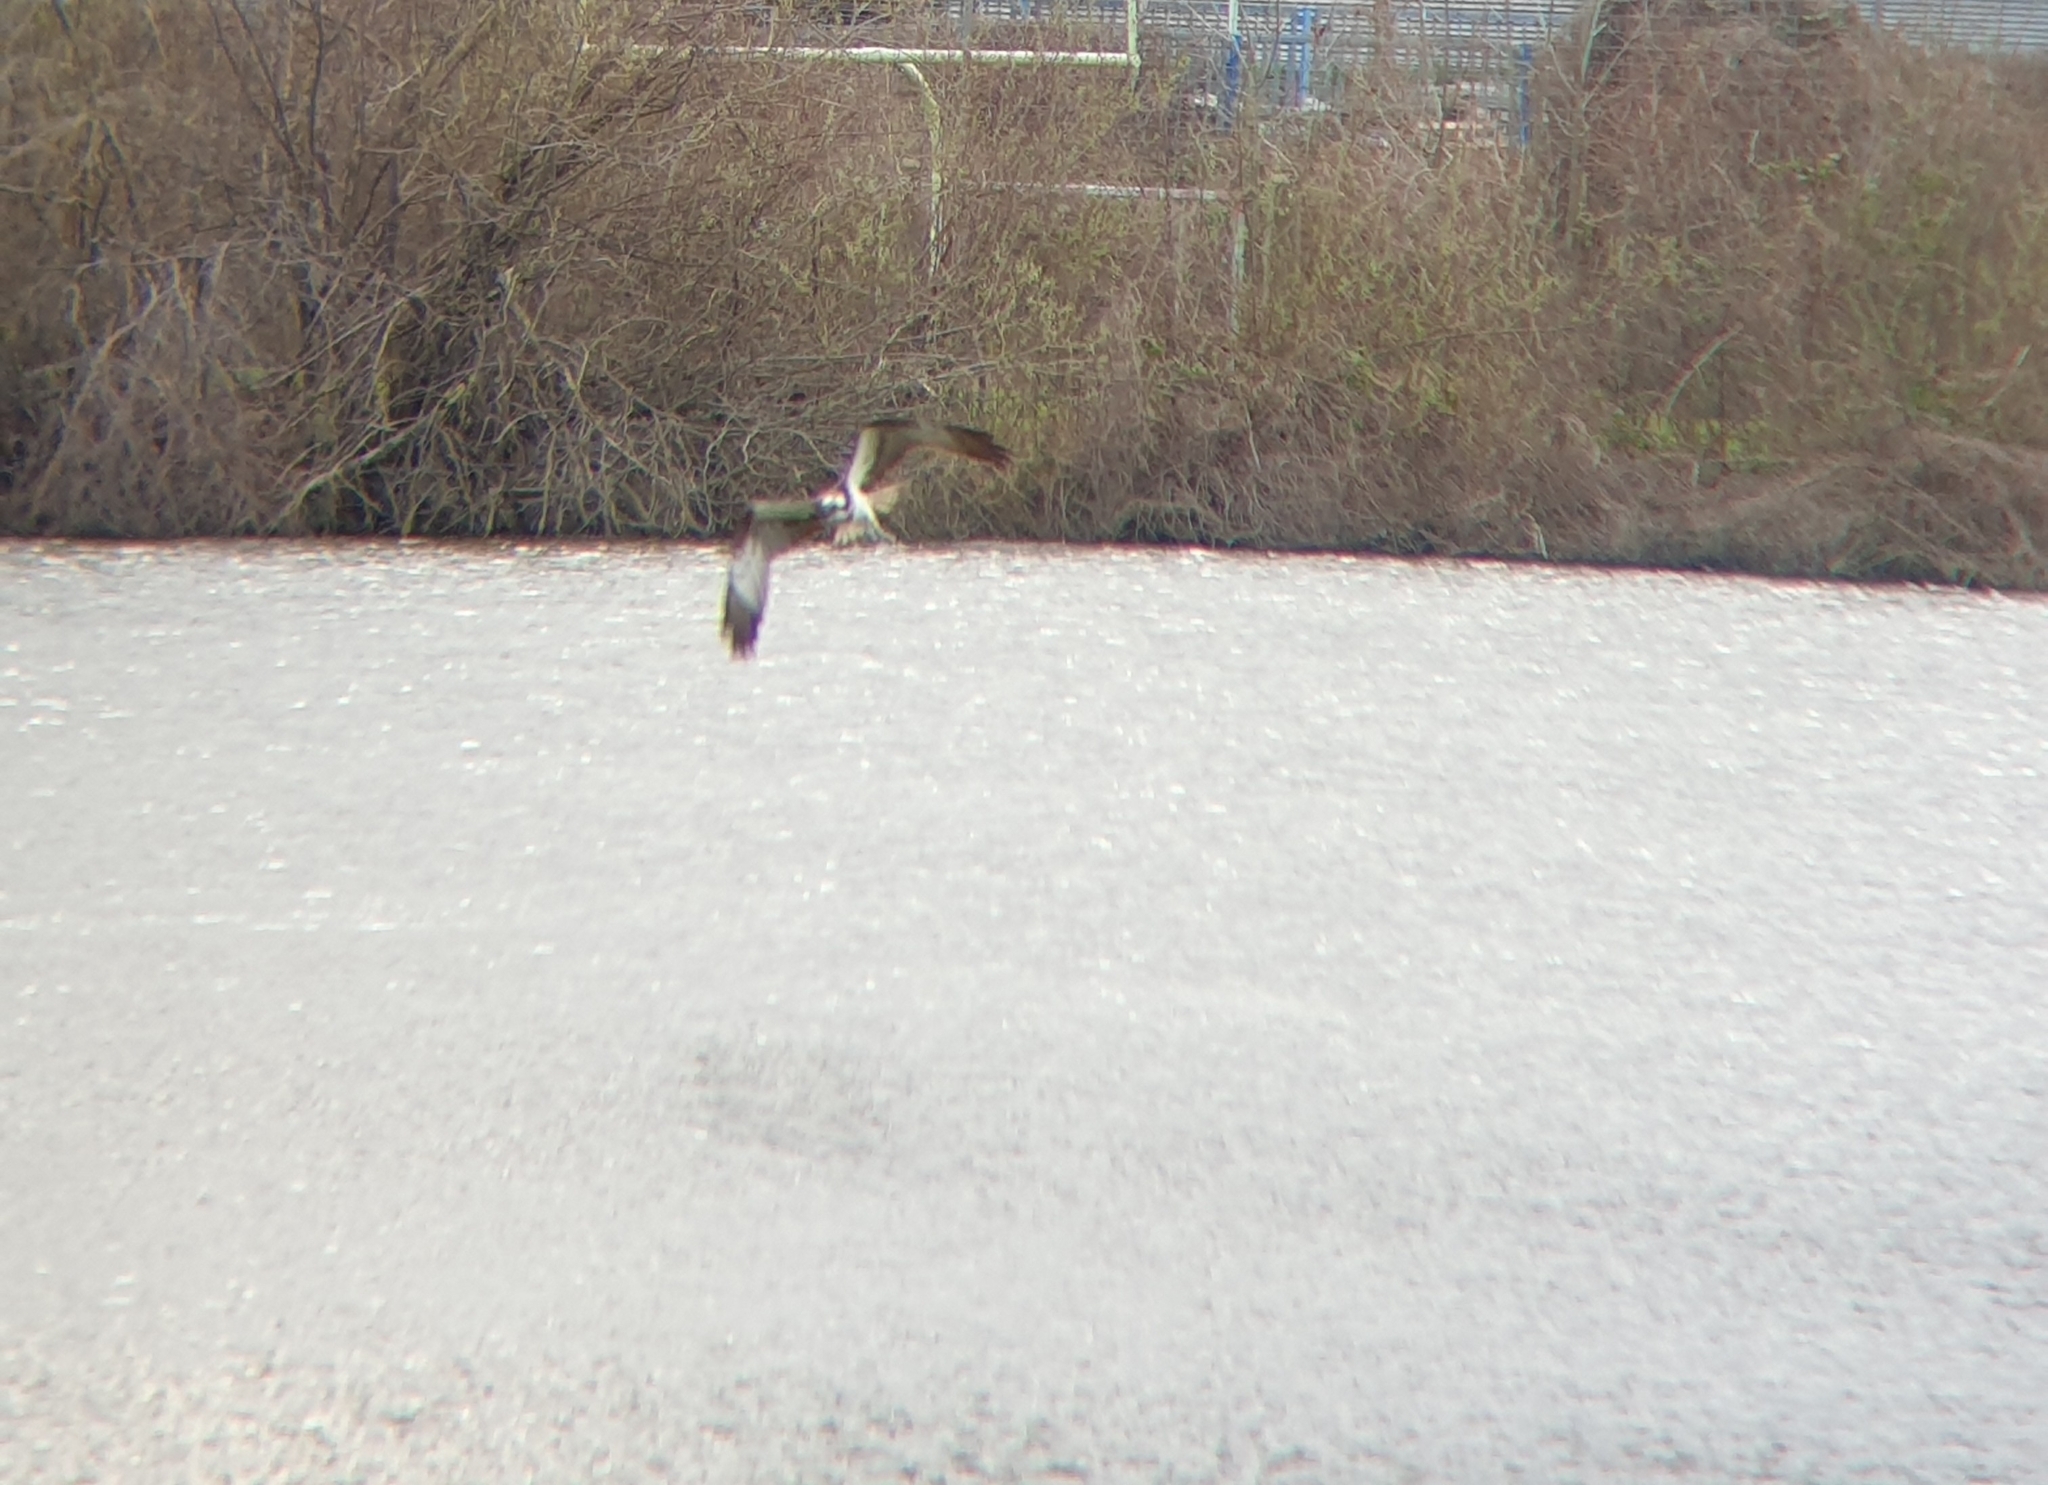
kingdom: Animalia
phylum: Chordata
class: Aves
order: Accipitriformes
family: Pandionidae
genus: Pandion
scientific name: Pandion haliaetus
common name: Osprey
